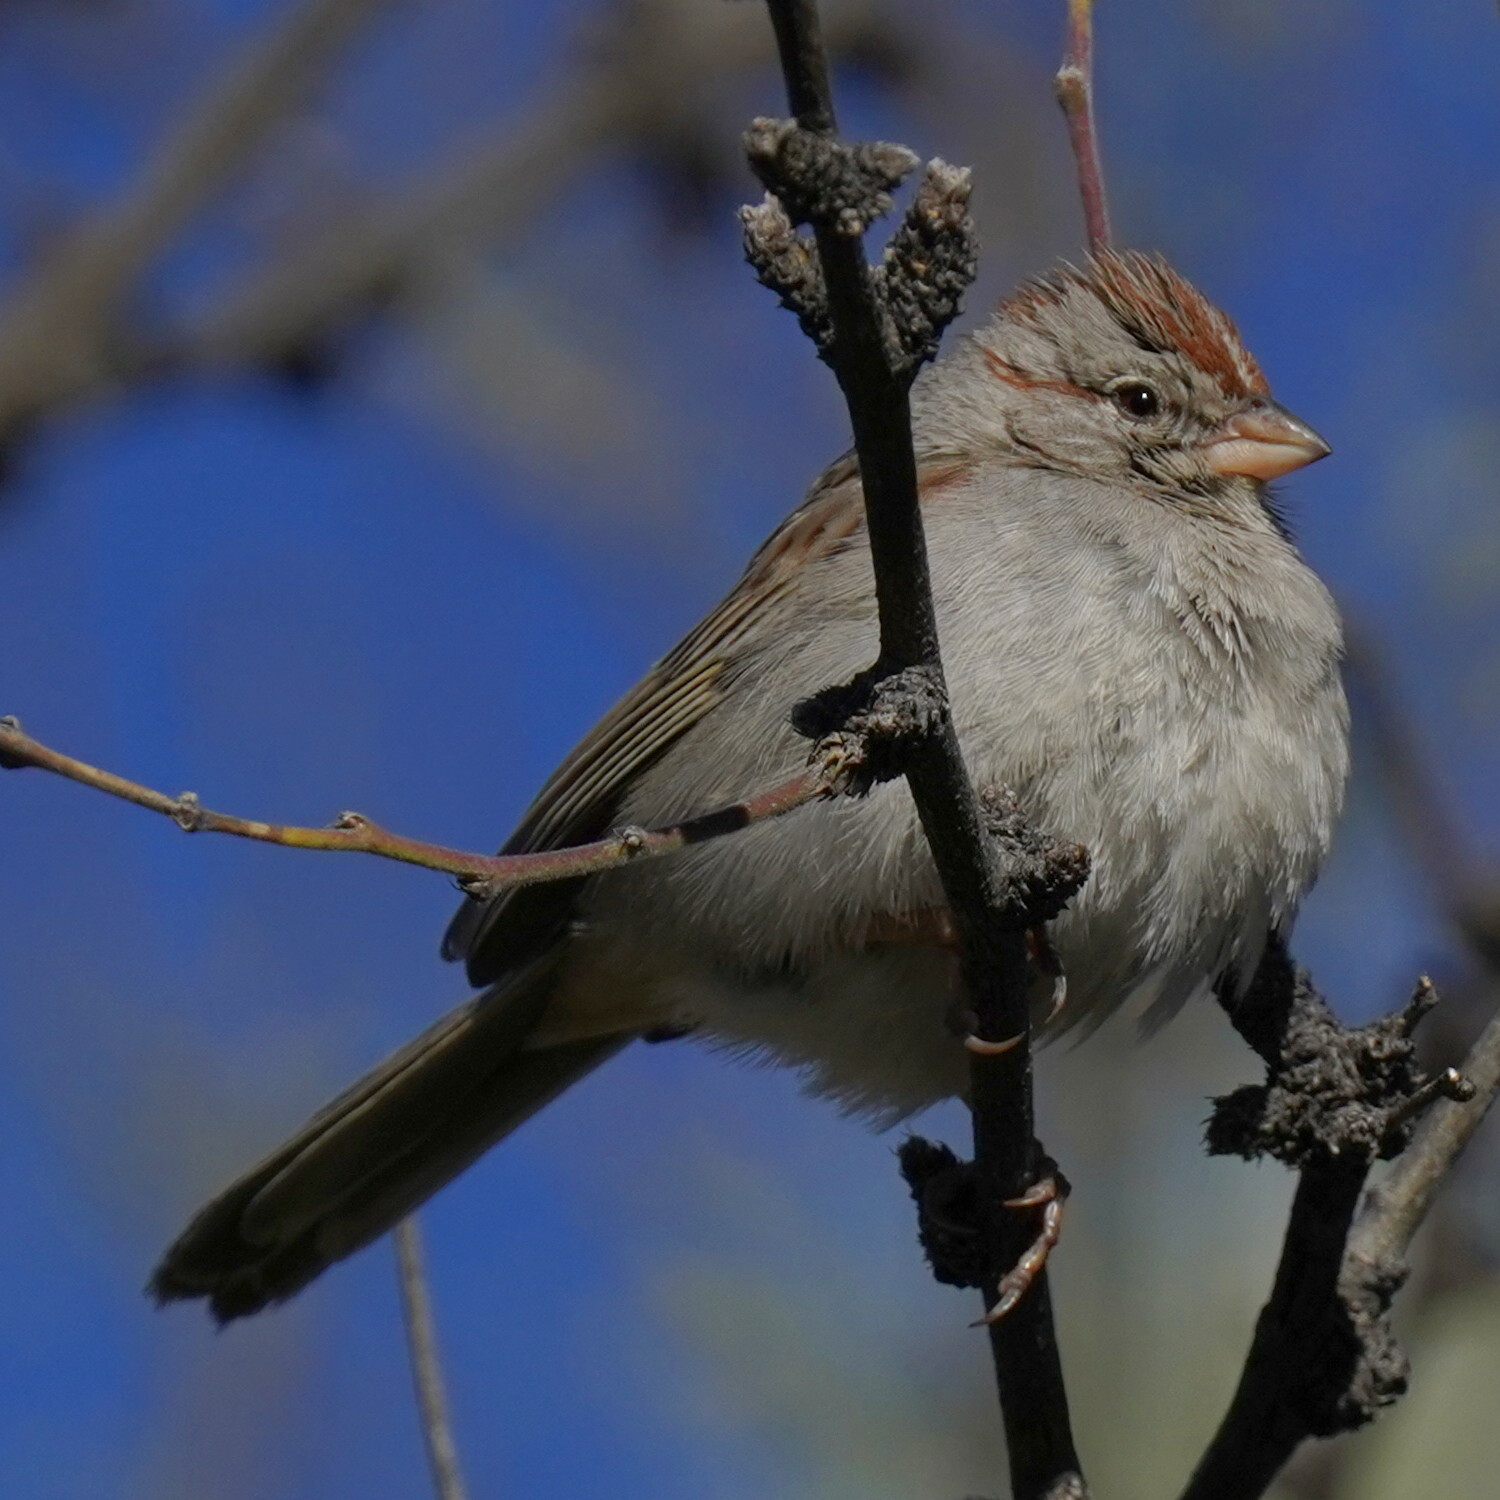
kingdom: Animalia
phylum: Chordata
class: Aves
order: Passeriformes
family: Passerellidae
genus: Peucaea
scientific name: Peucaea carpalis
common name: Rufous-winged sparrow
